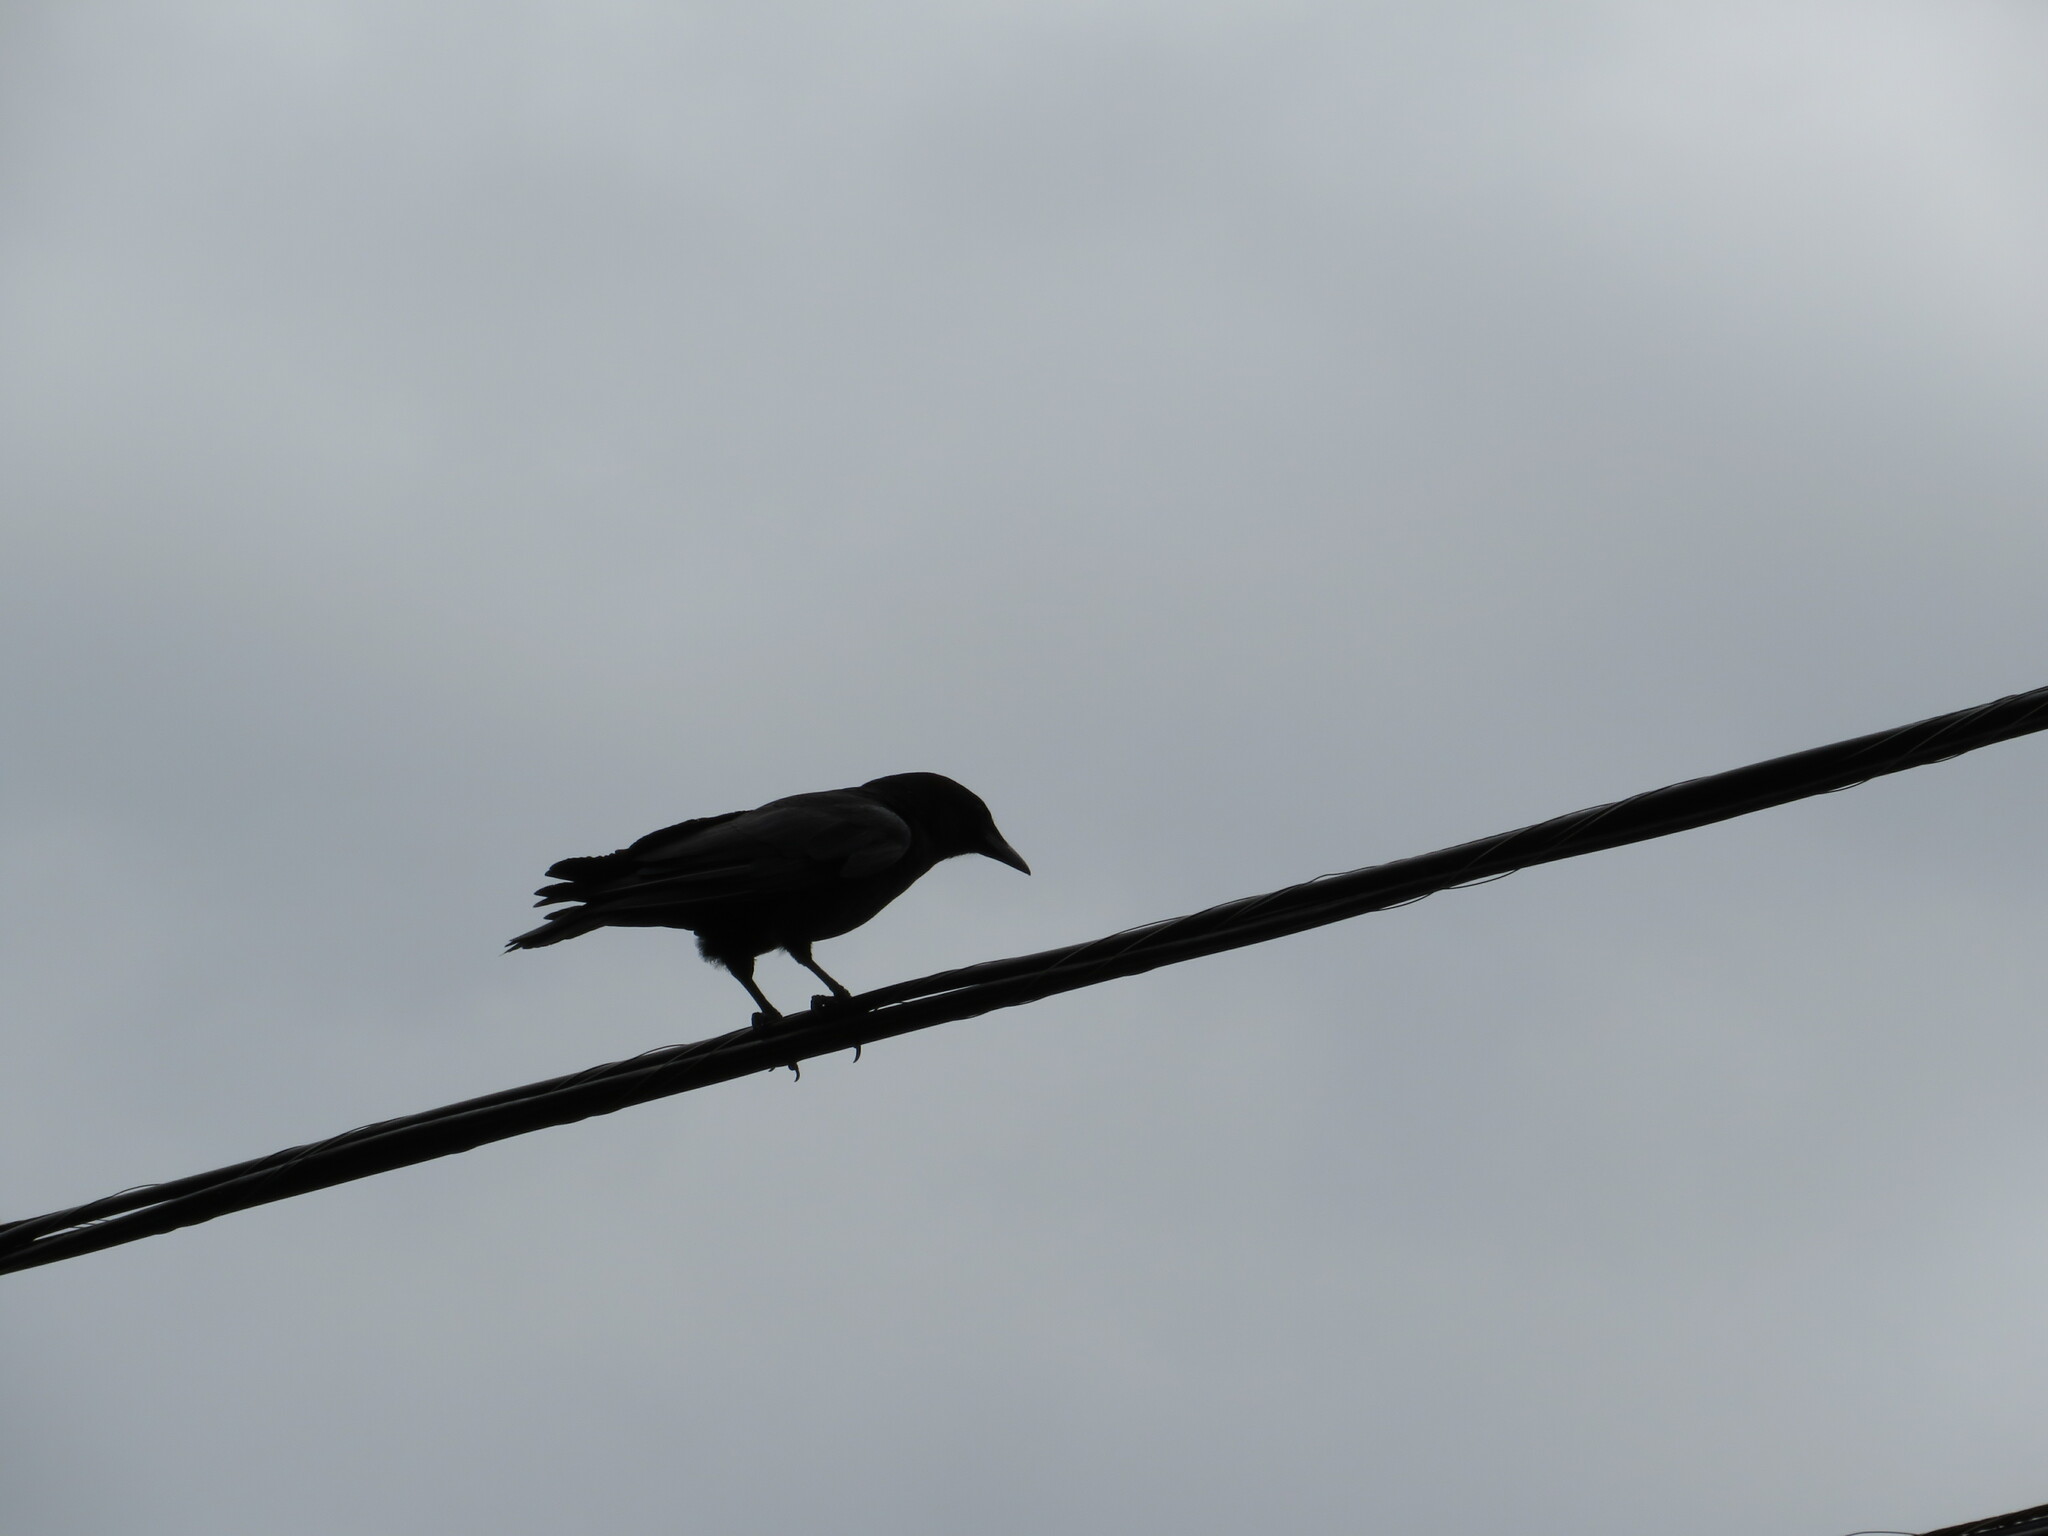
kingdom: Animalia
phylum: Chordata
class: Aves
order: Passeriformes
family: Corvidae
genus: Corvus
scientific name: Corvus brachyrhynchos
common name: American crow
